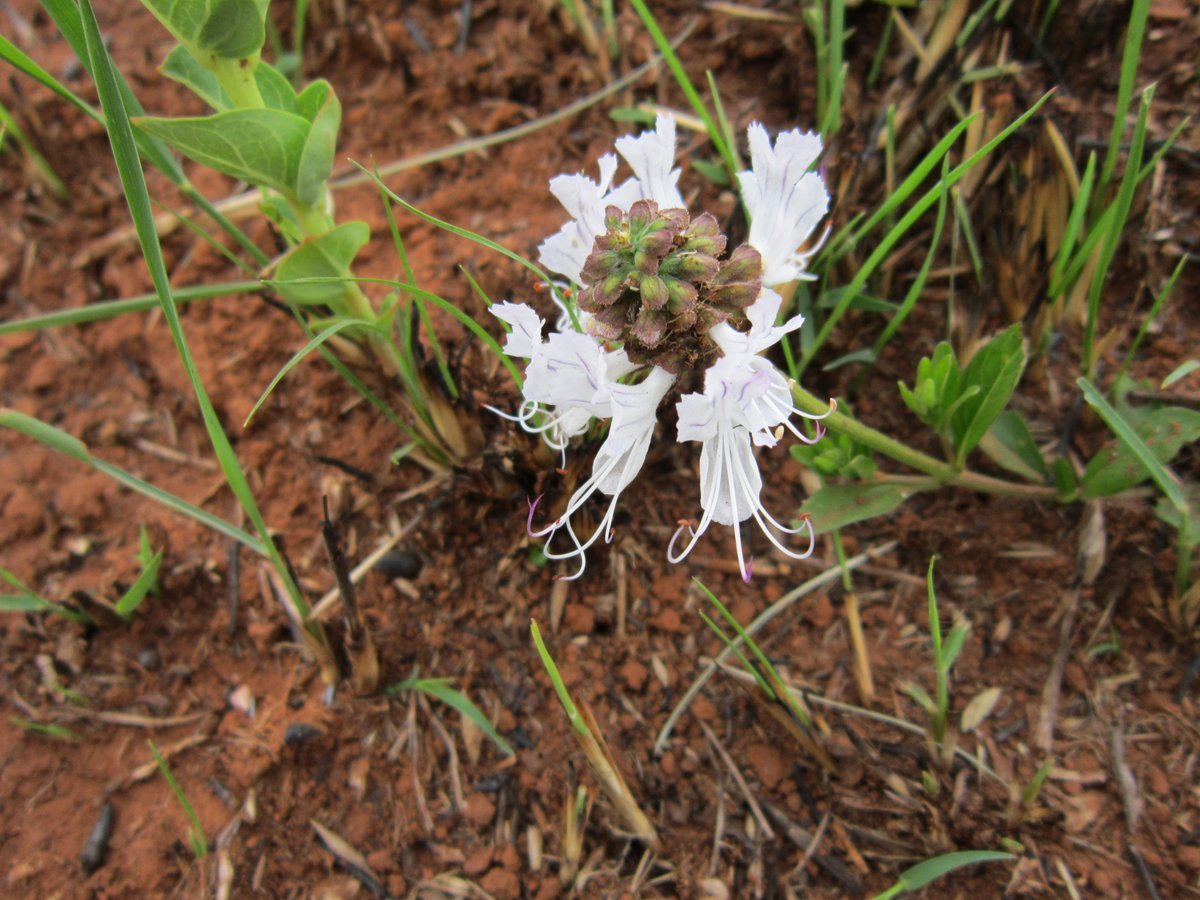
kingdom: Plantae
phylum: Tracheophyta
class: Magnoliopsida
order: Lamiales
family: Lamiaceae
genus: Ocimum
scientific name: Ocimum obovatum
